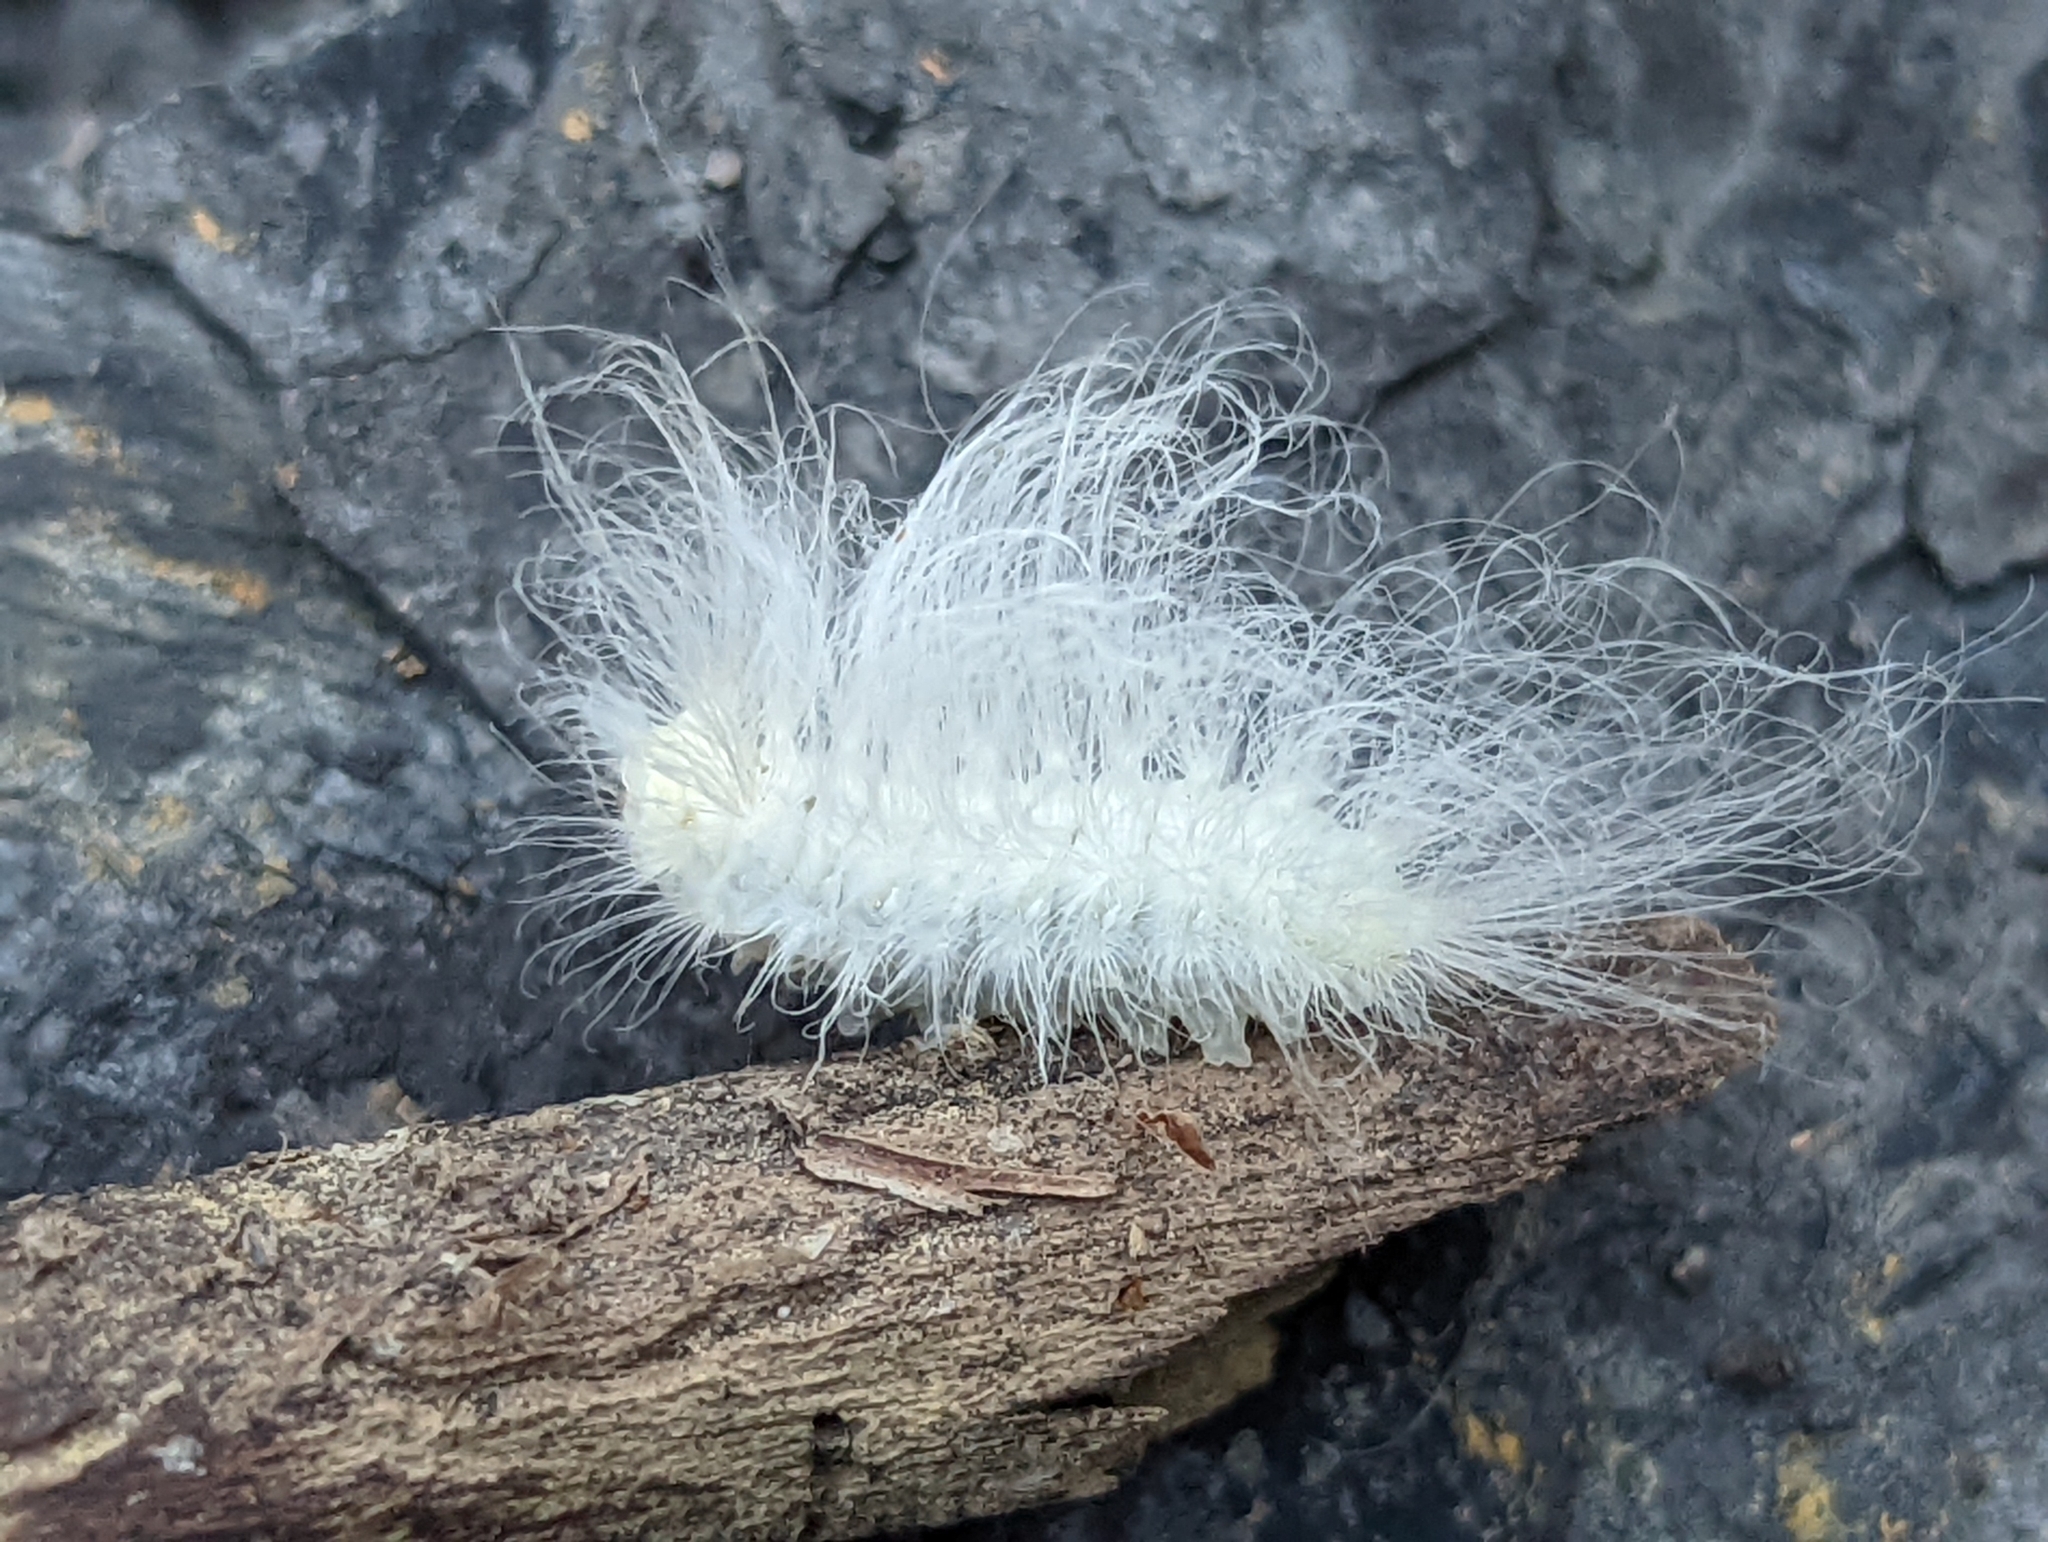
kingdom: Animalia
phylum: Arthropoda
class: Insecta
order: Lepidoptera
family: Megalopygidae
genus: Megalopyge
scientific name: Megalopyge crispata
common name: Black-waved flannel moth
